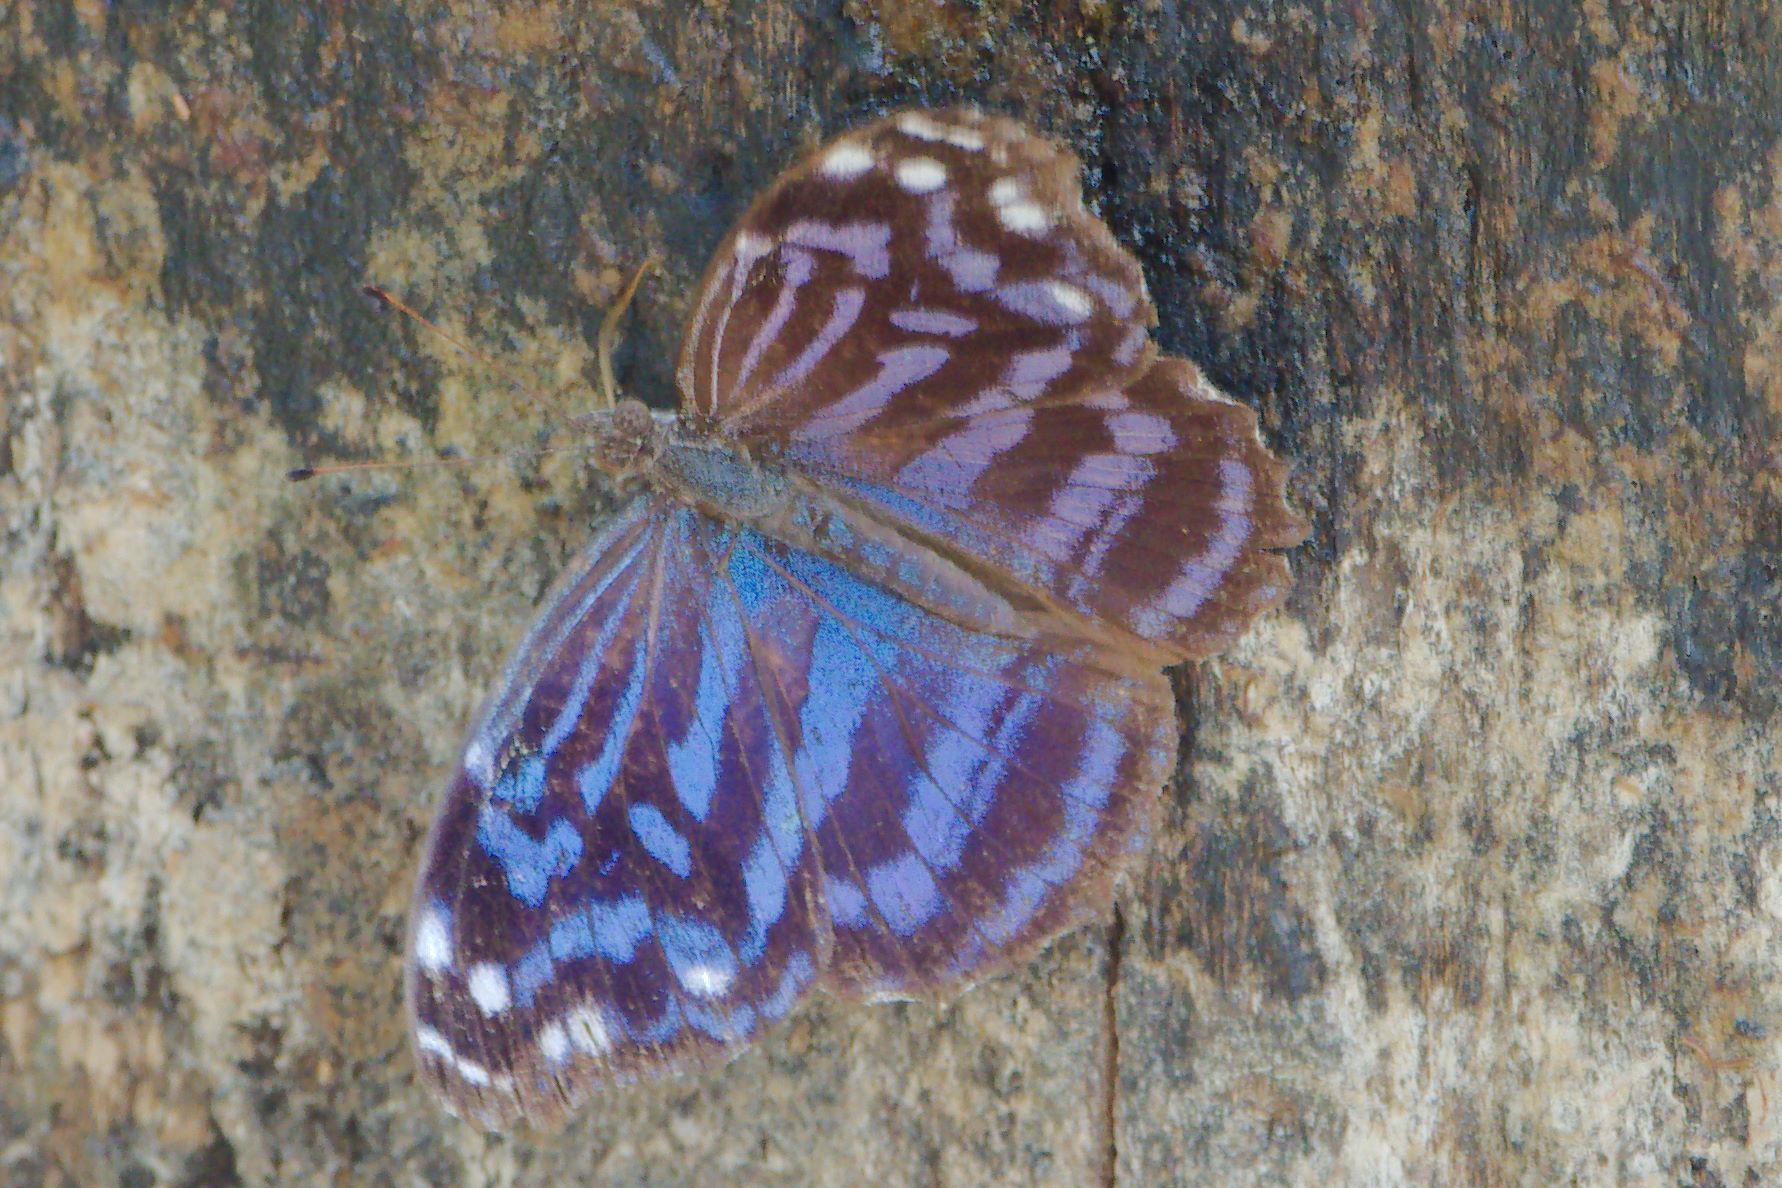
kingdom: Animalia
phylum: Arthropoda
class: Insecta
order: Lepidoptera
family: Nymphalidae
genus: Myscelia
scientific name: Myscelia ethusa
